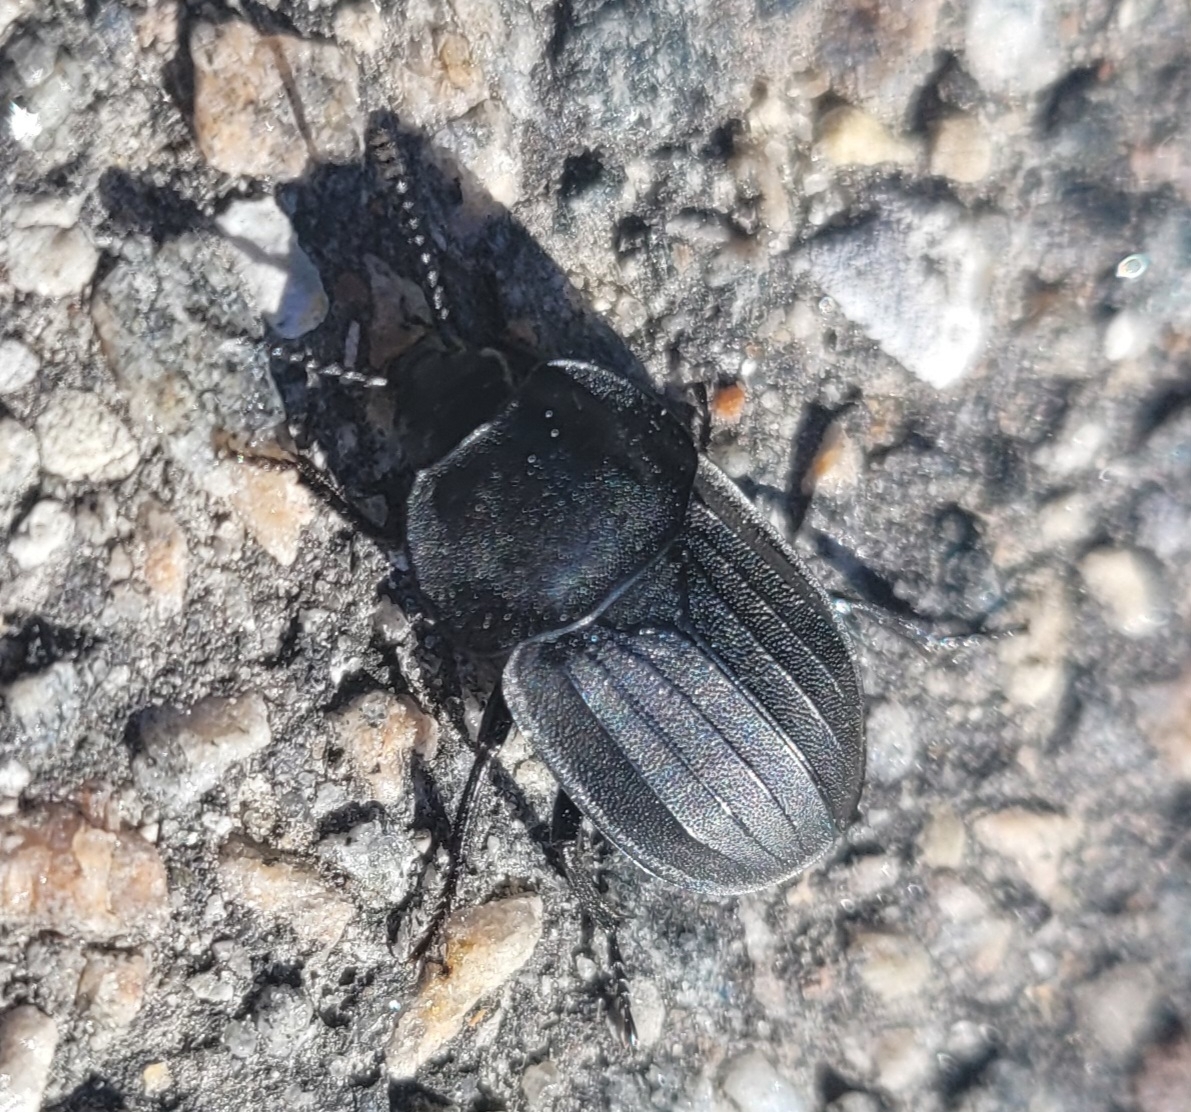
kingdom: Animalia
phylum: Arthropoda
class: Insecta
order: Coleoptera
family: Staphylinidae
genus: Silpha
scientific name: Silpha tristis
